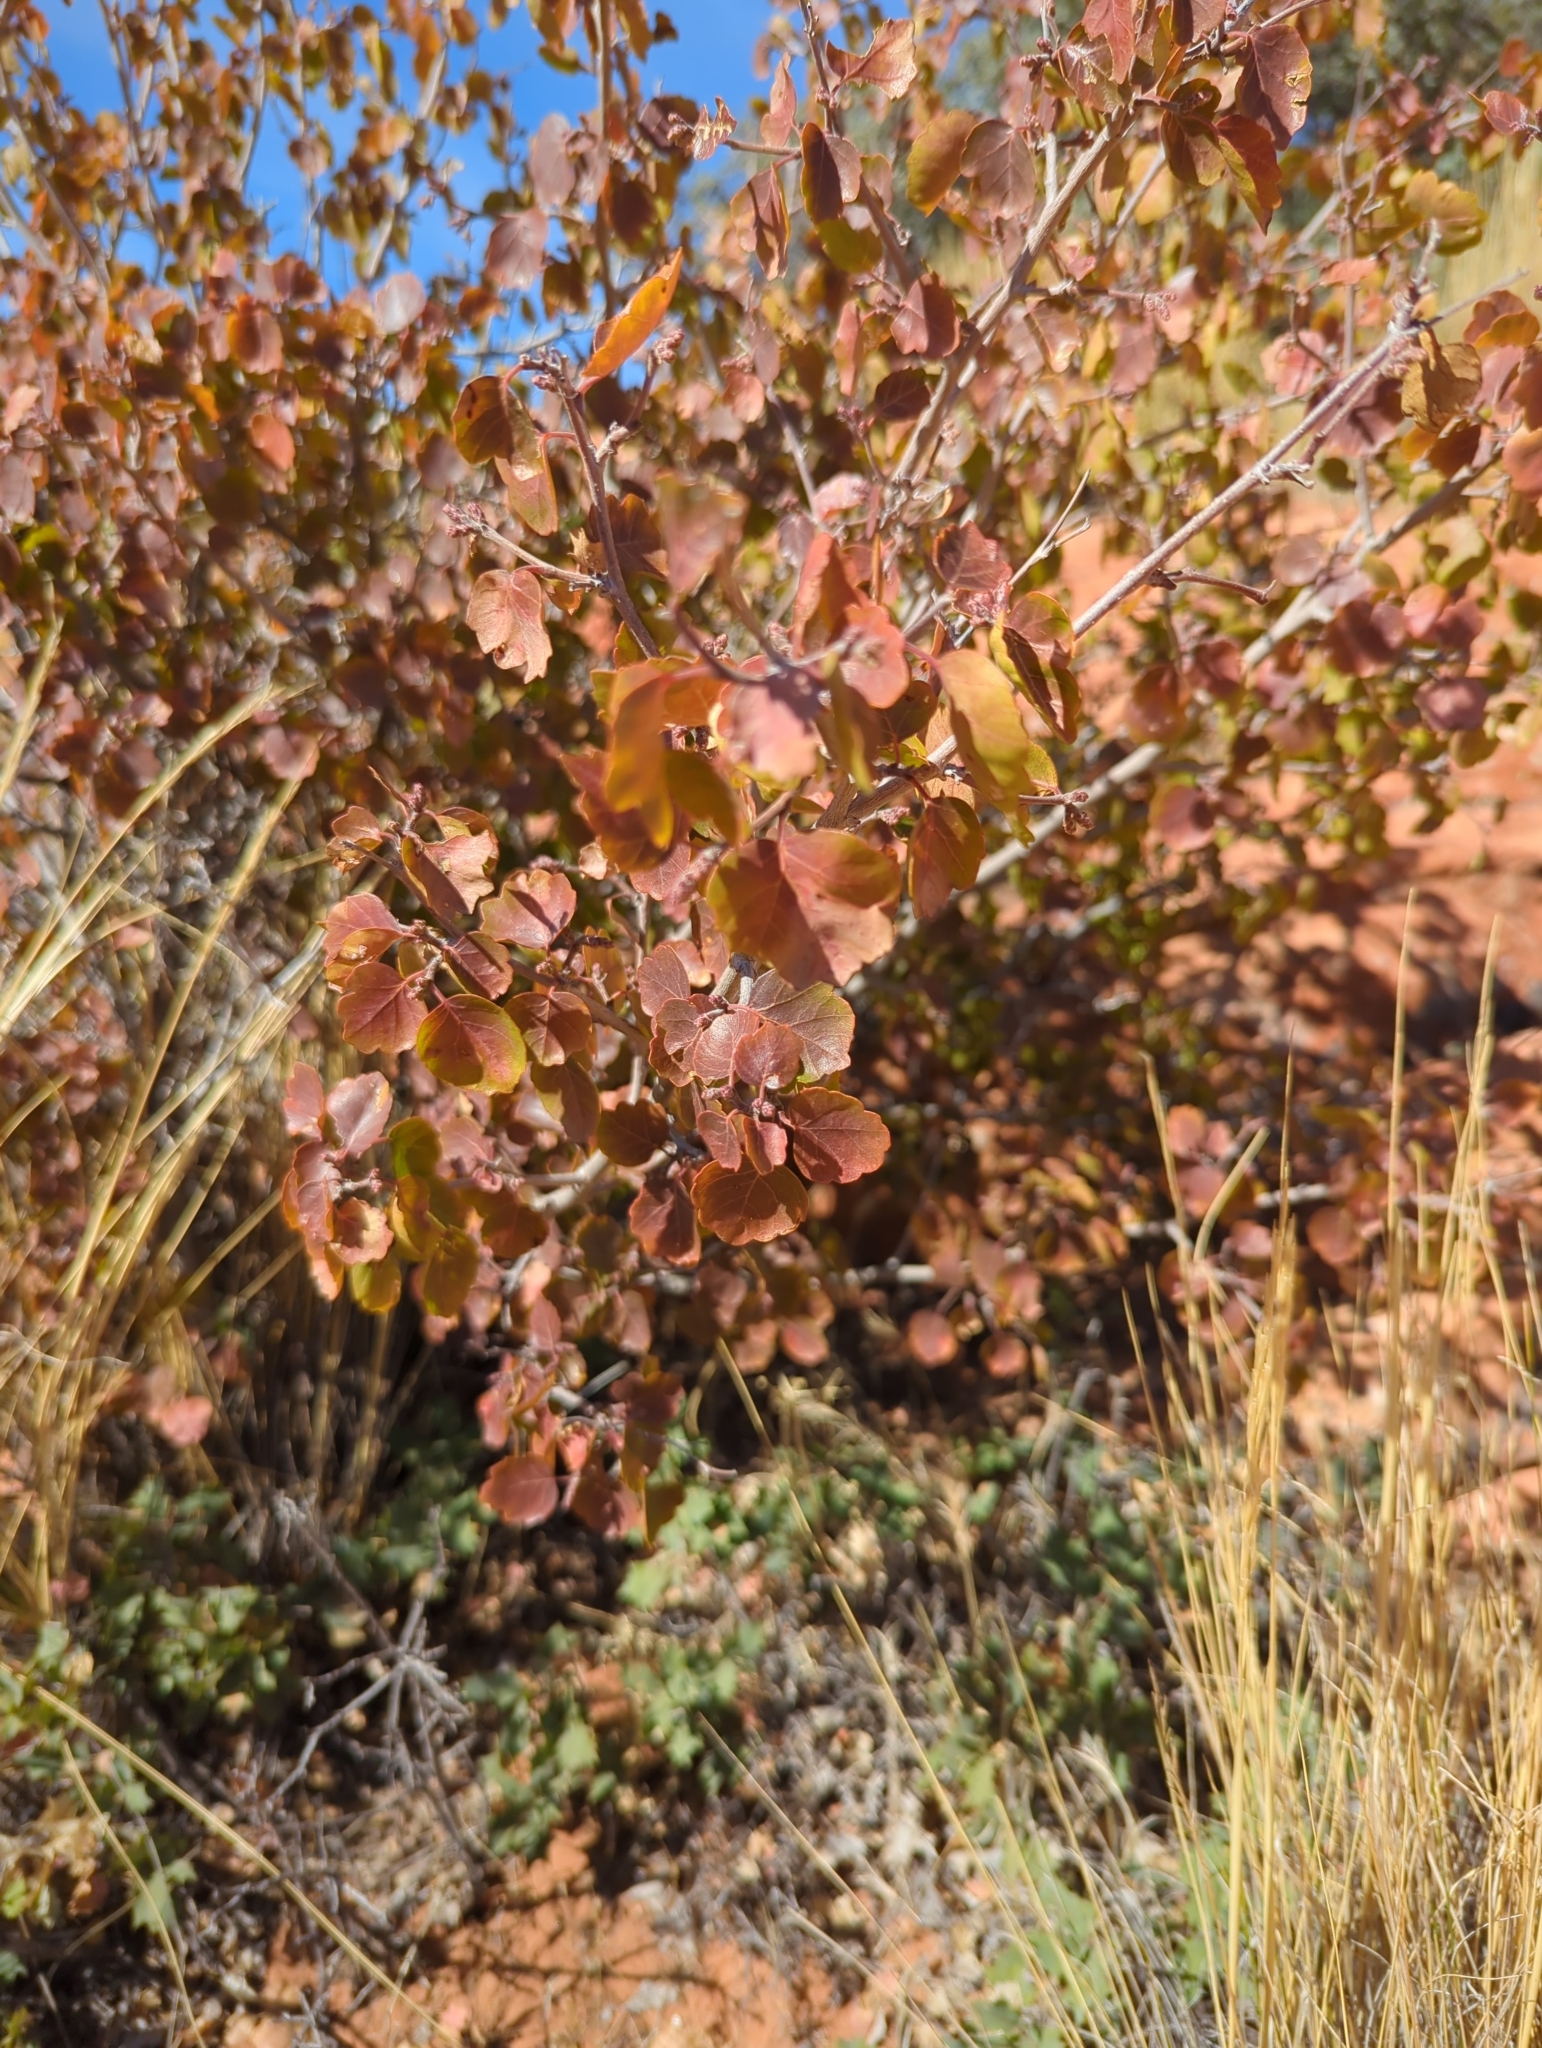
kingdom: Plantae
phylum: Tracheophyta
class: Magnoliopsida
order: Sapindales
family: Anacardiaceae
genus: Rhus
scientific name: Rhus trilobata
